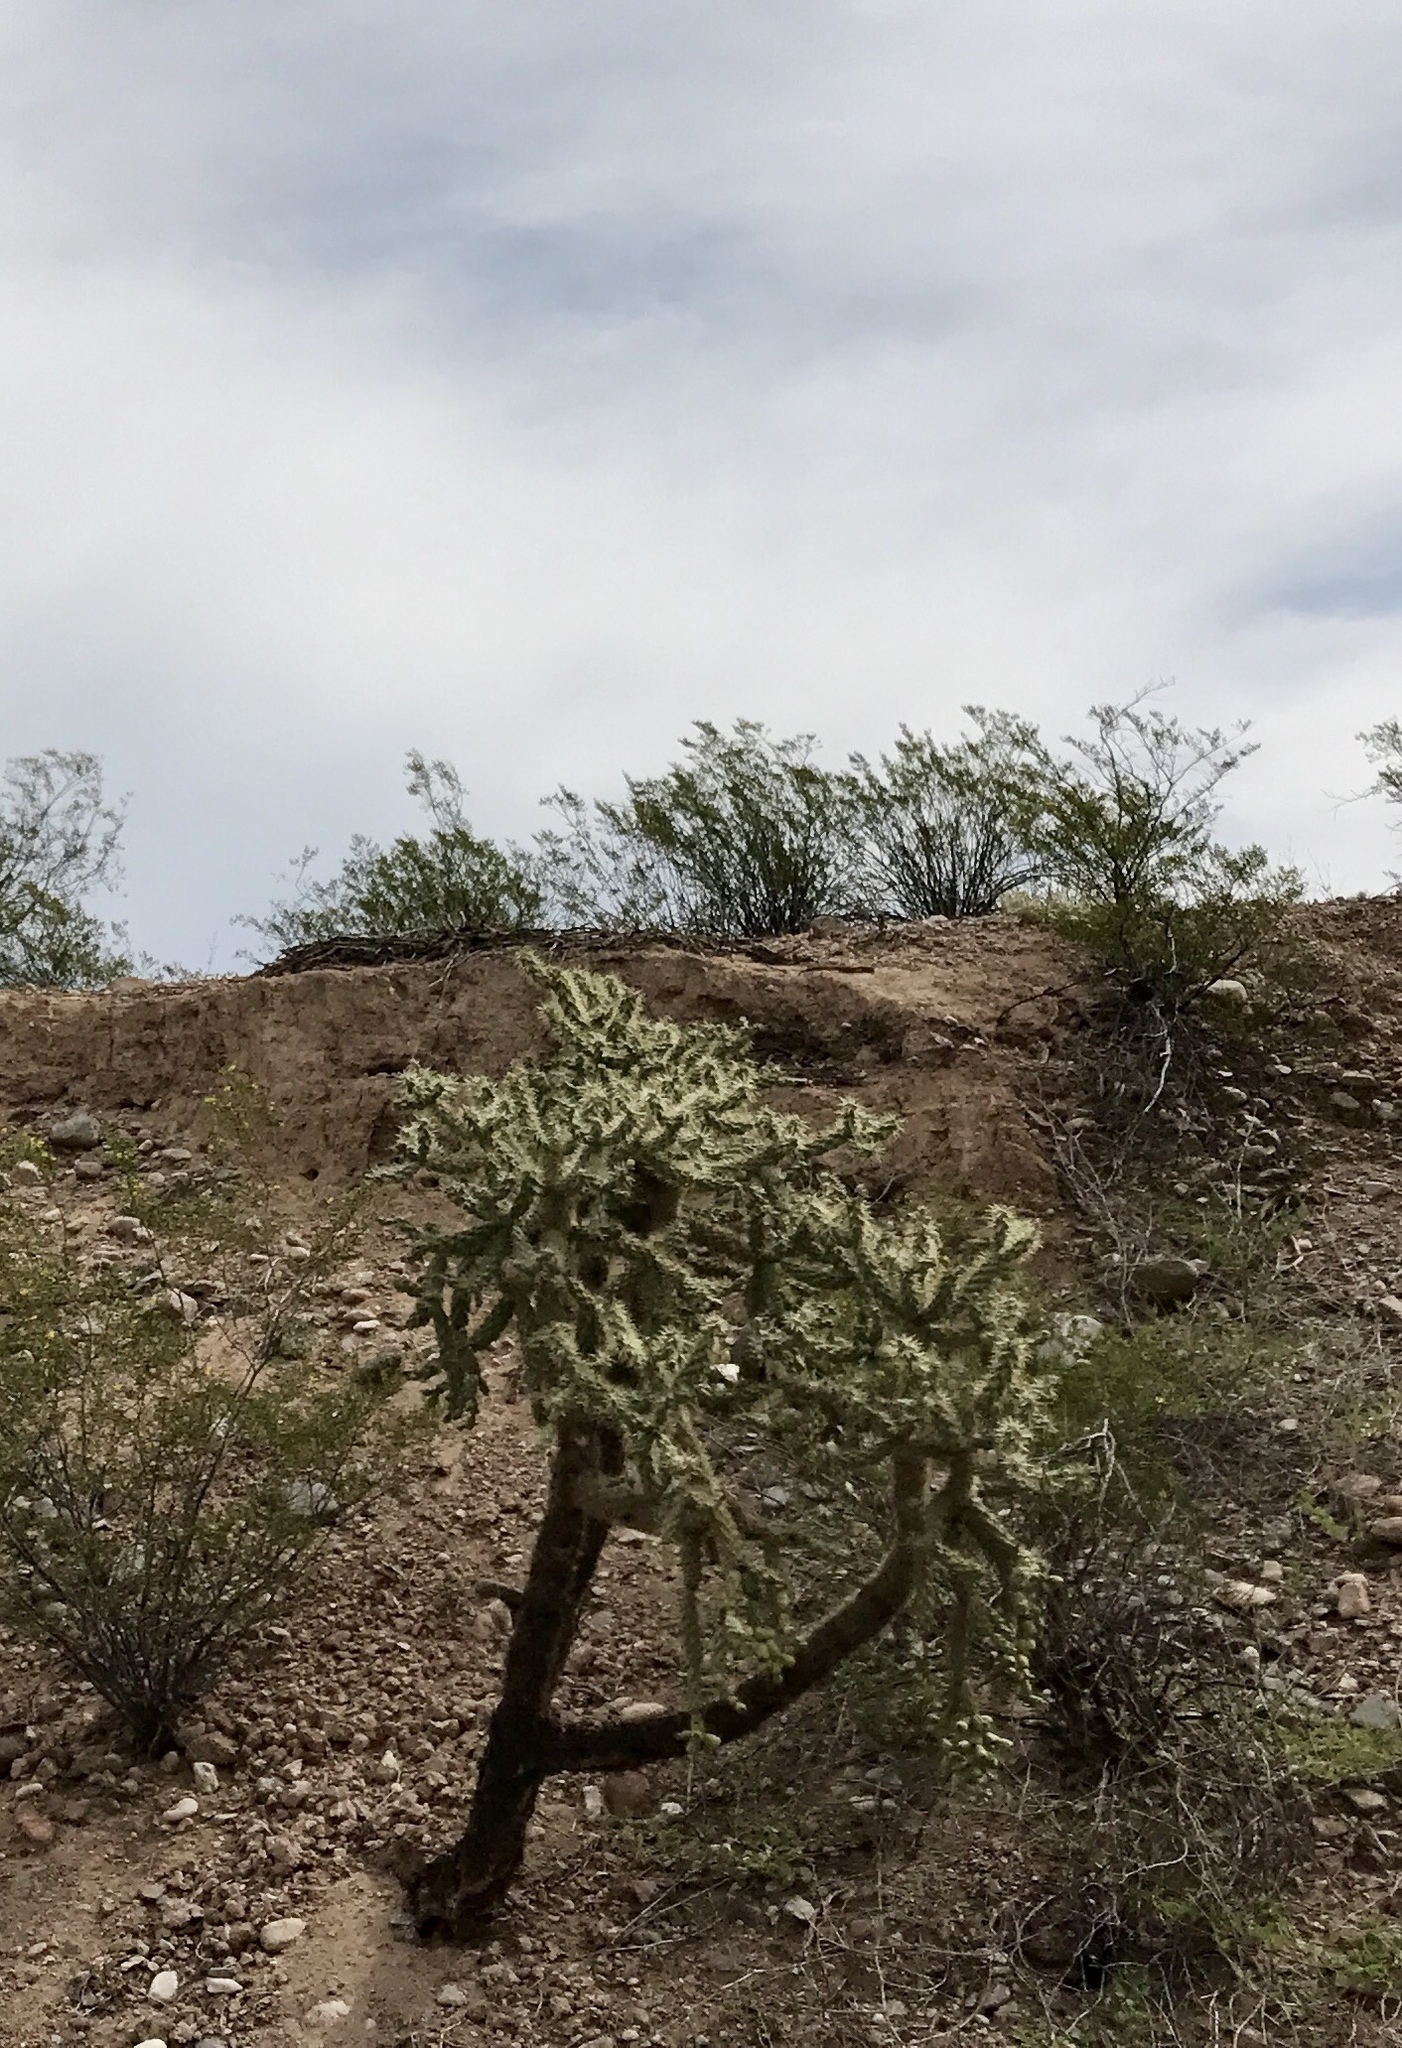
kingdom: Plantae
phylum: Tracheophyta
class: Magnoliopsida
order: Caryophyllales
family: Cactaceae
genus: Cylindropuntia
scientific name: Cylindropuntia fulgida
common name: Jumping cholla
